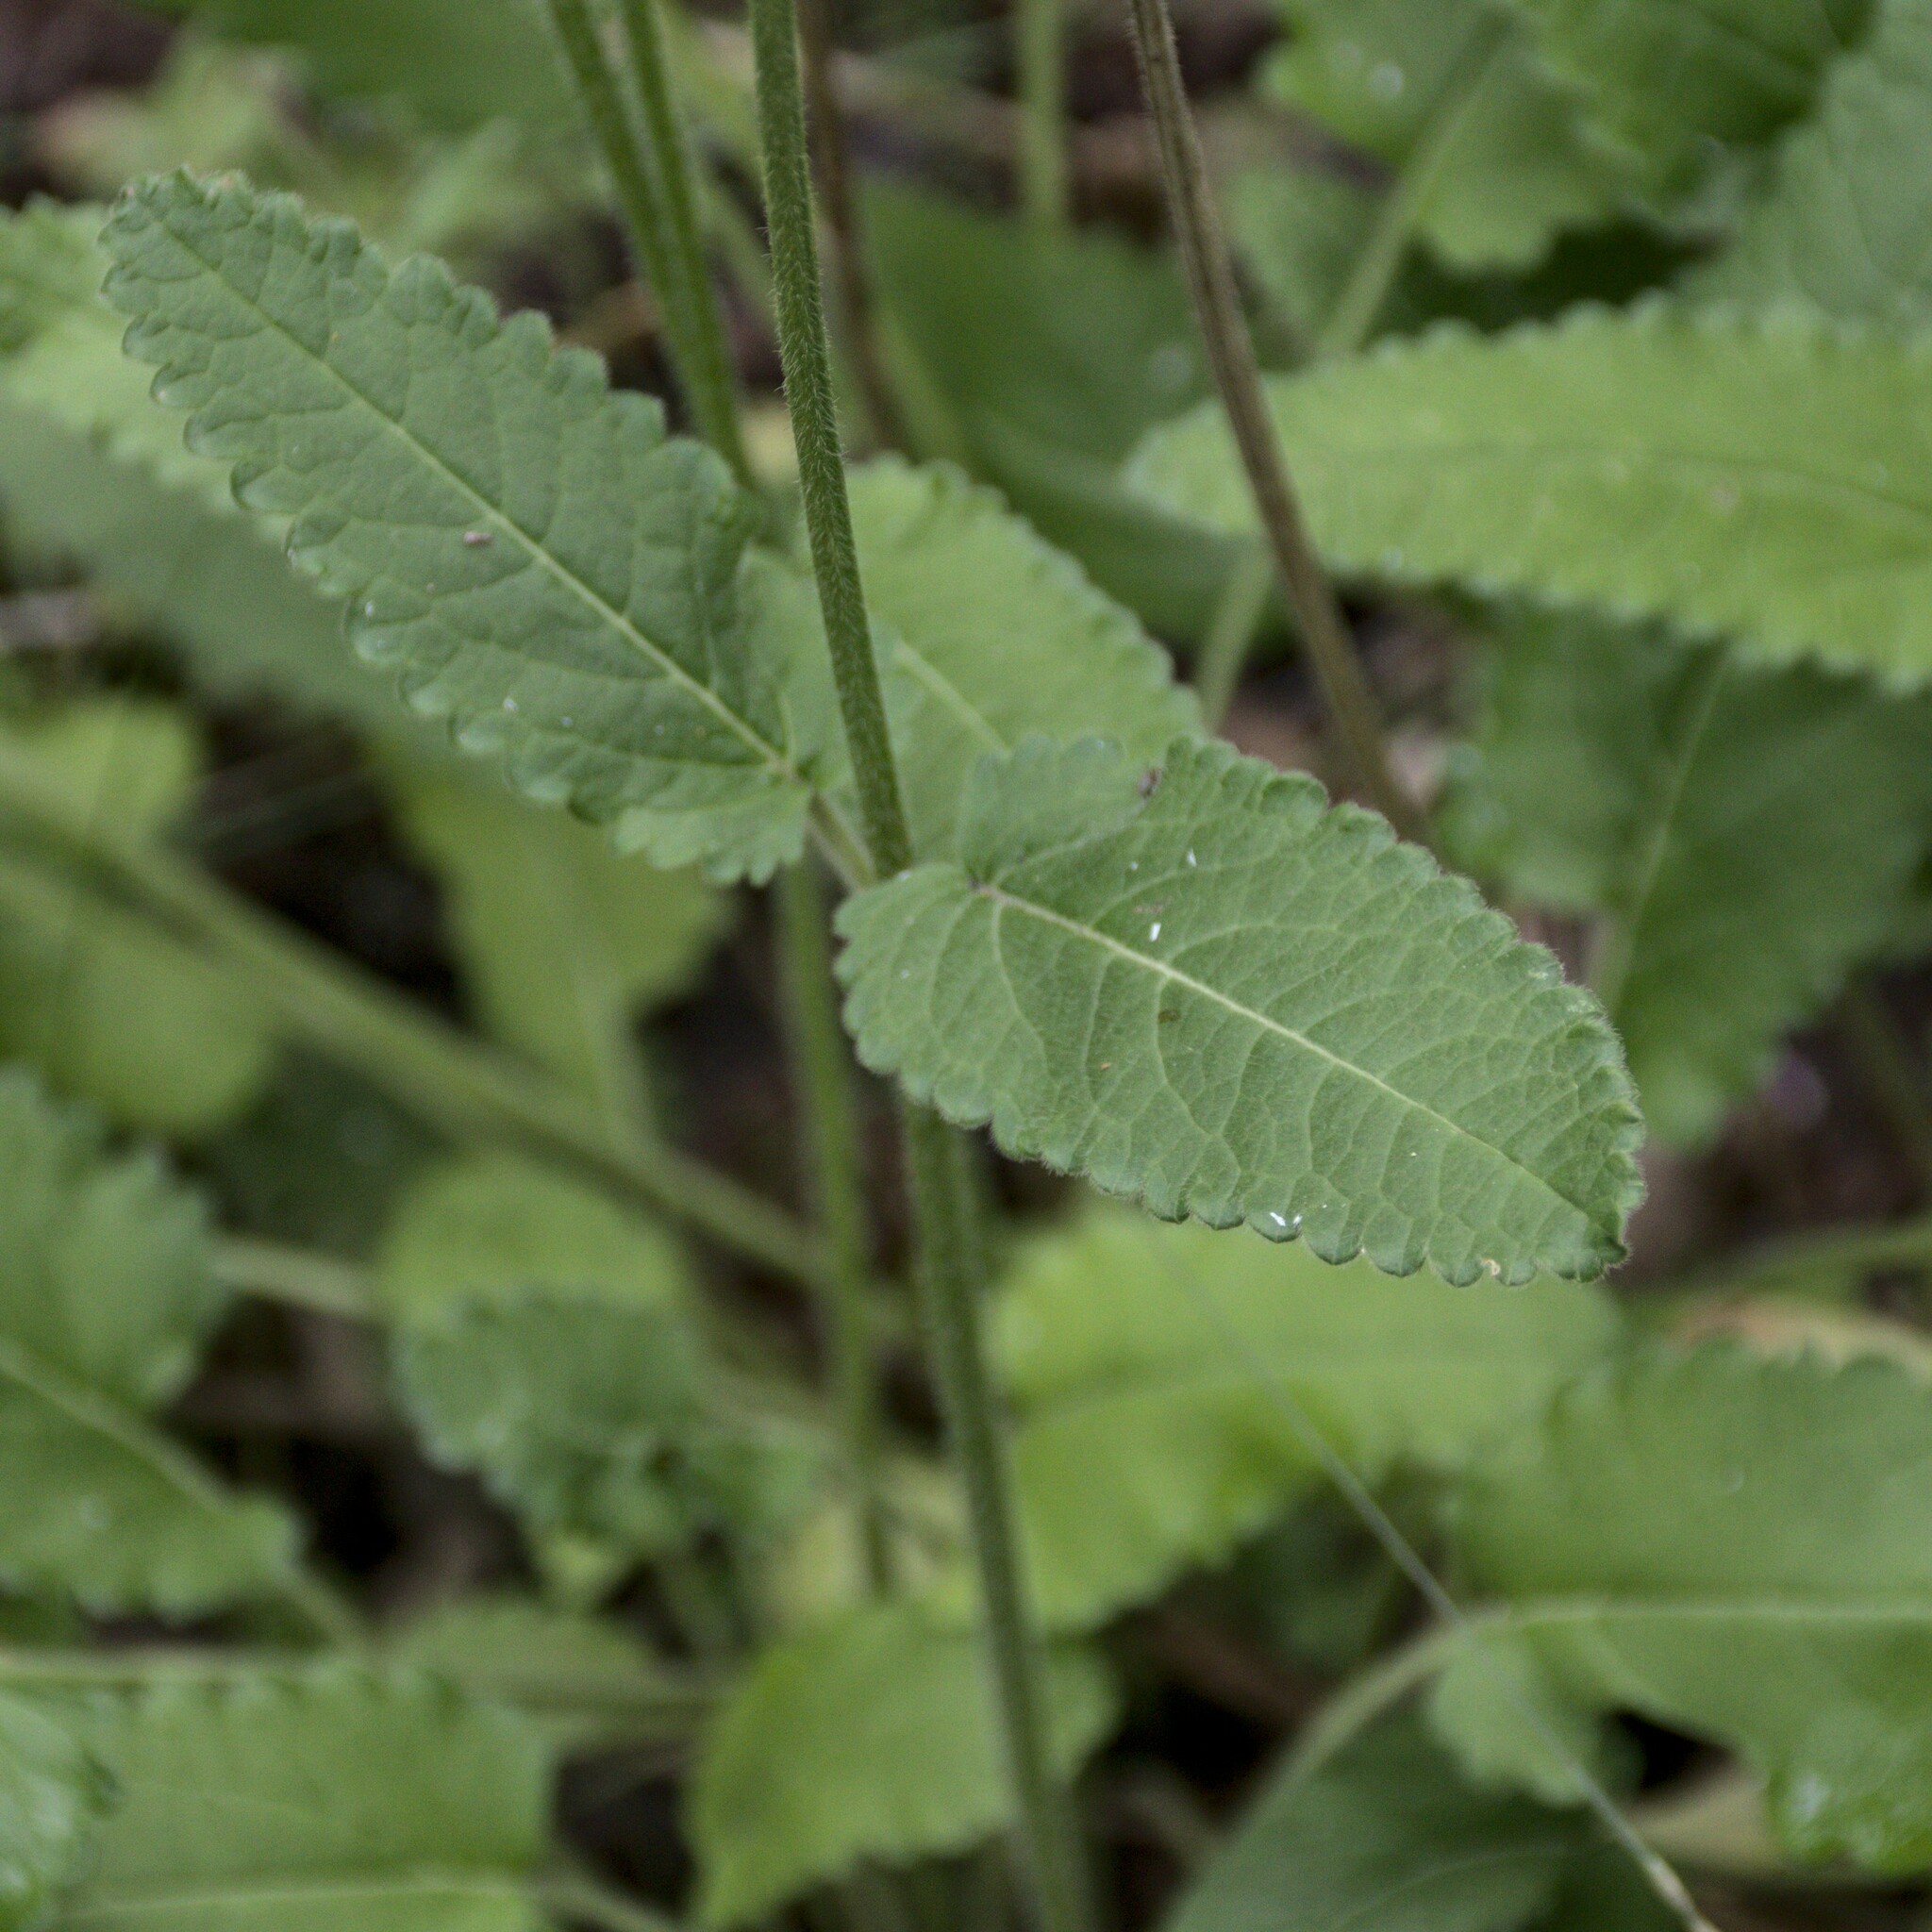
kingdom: Plantae
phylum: Tracheophyta
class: Magnoliopsida
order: Lamiales
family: Lamiaceae
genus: Betonica
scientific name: Betonica officinalis
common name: Bishop's-wort
